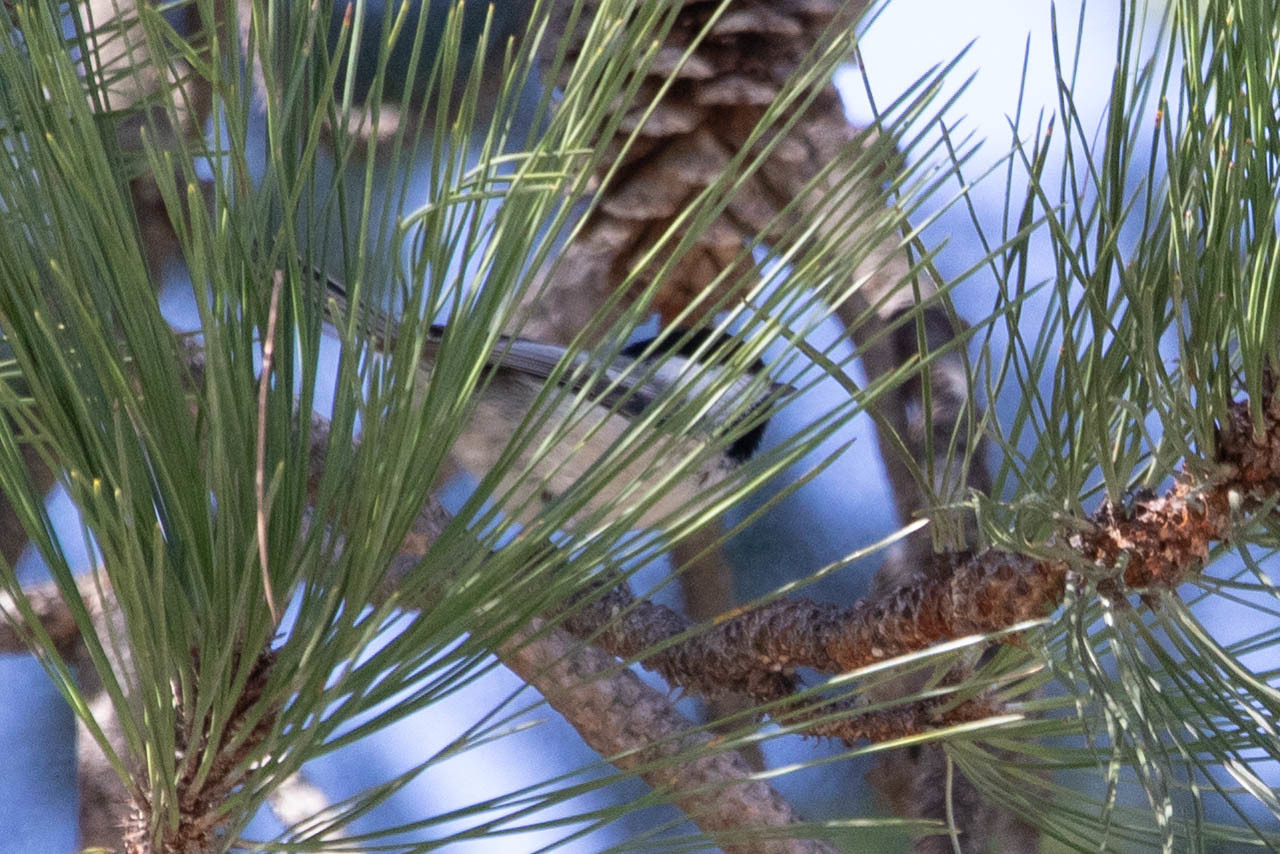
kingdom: Animalia
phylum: Chordata
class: Aves
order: Passeriformes
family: Paridae
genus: Poecile
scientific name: Poecile atricapillus
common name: Black-capped chickadee
